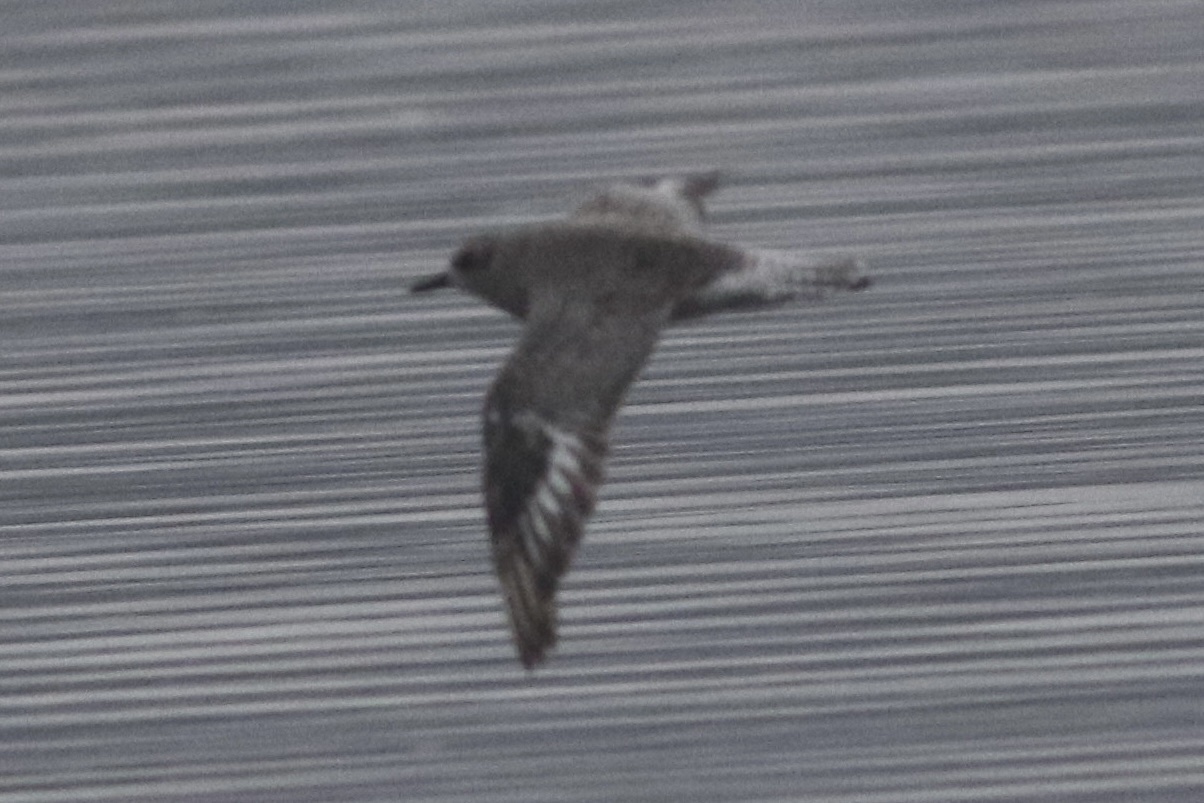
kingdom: Animalia
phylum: Chordata
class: Aves
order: Charadriiformes
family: Charadriidae
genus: Pluvialis
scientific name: Pluvialis squatarola
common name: Grey plover
